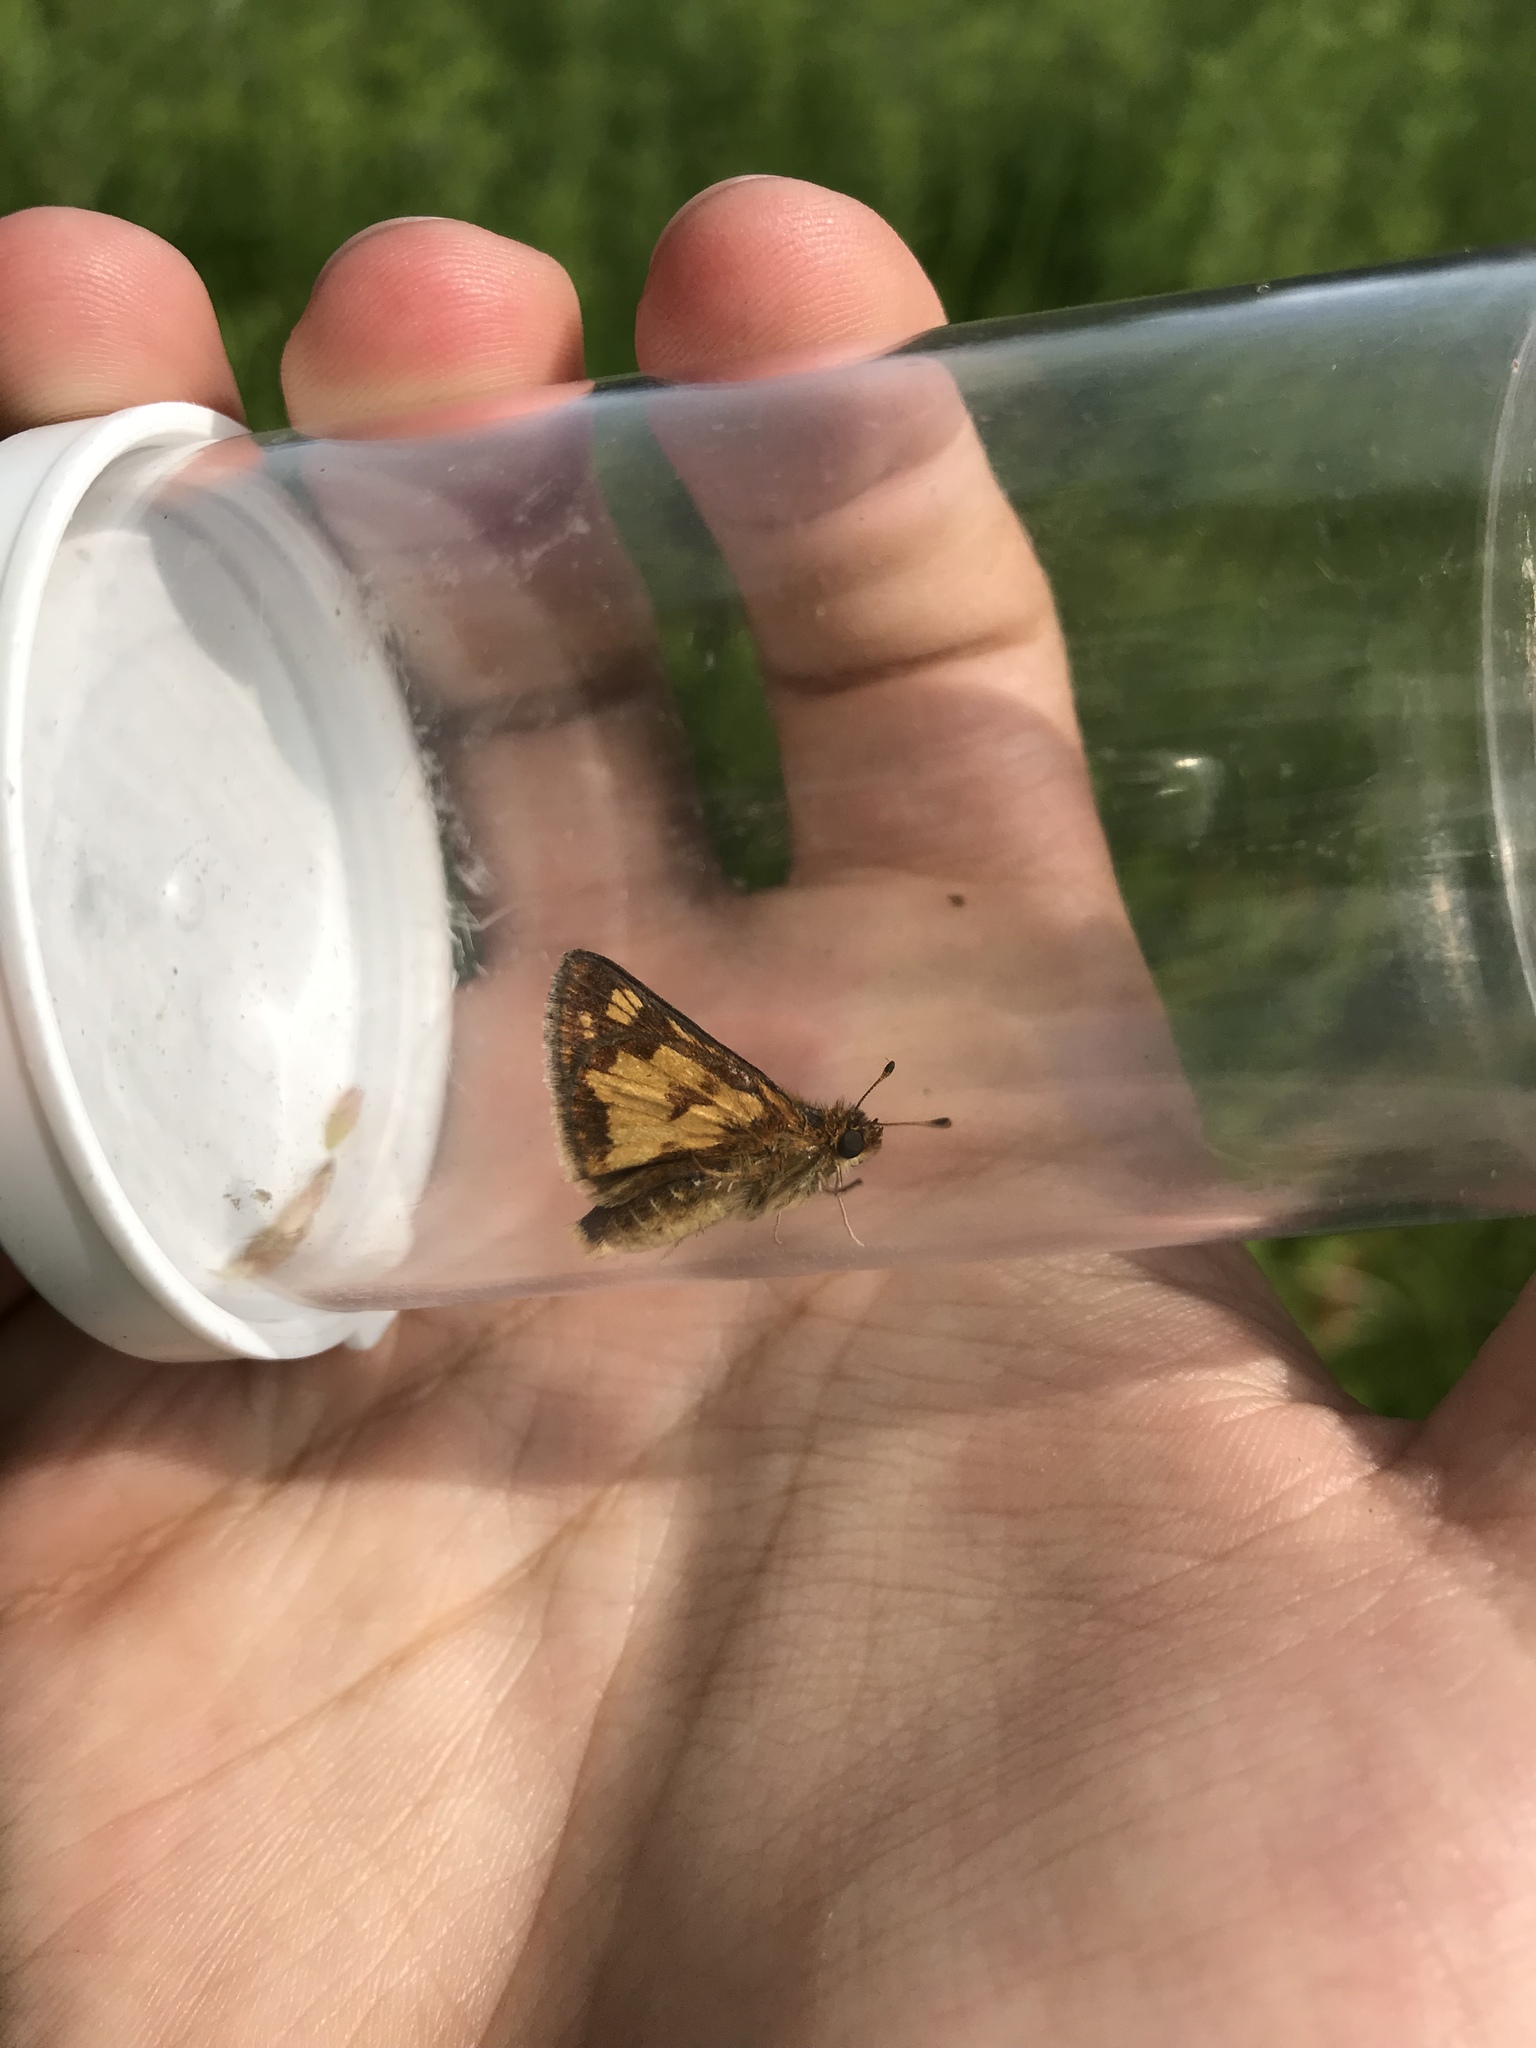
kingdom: Animalia
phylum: Arthropoda
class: Insecta
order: Lepidoptera
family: Hesperiidae
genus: Polites
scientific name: Polites coras
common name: Peck's skipper
